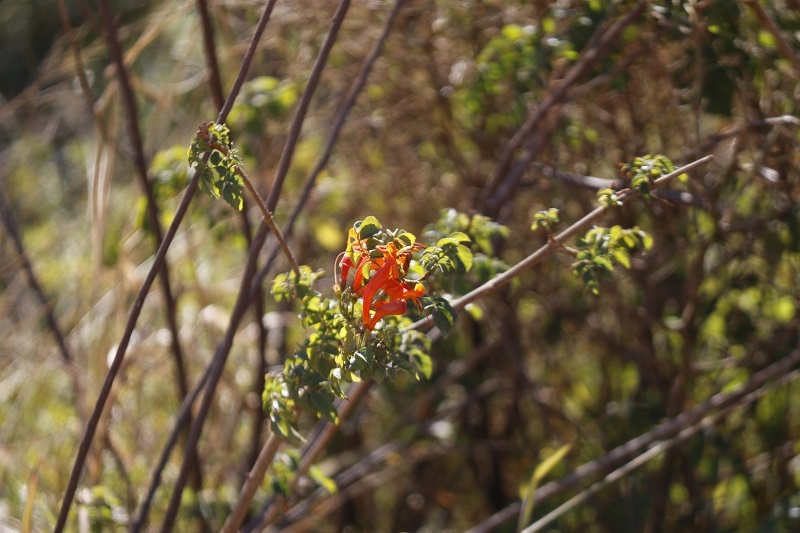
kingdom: Plantae
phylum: Tracheophyta
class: Magnoliopsida
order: Lamiales
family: Bignoniaceae
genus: Tecomaria
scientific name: Tecomaria capensis
